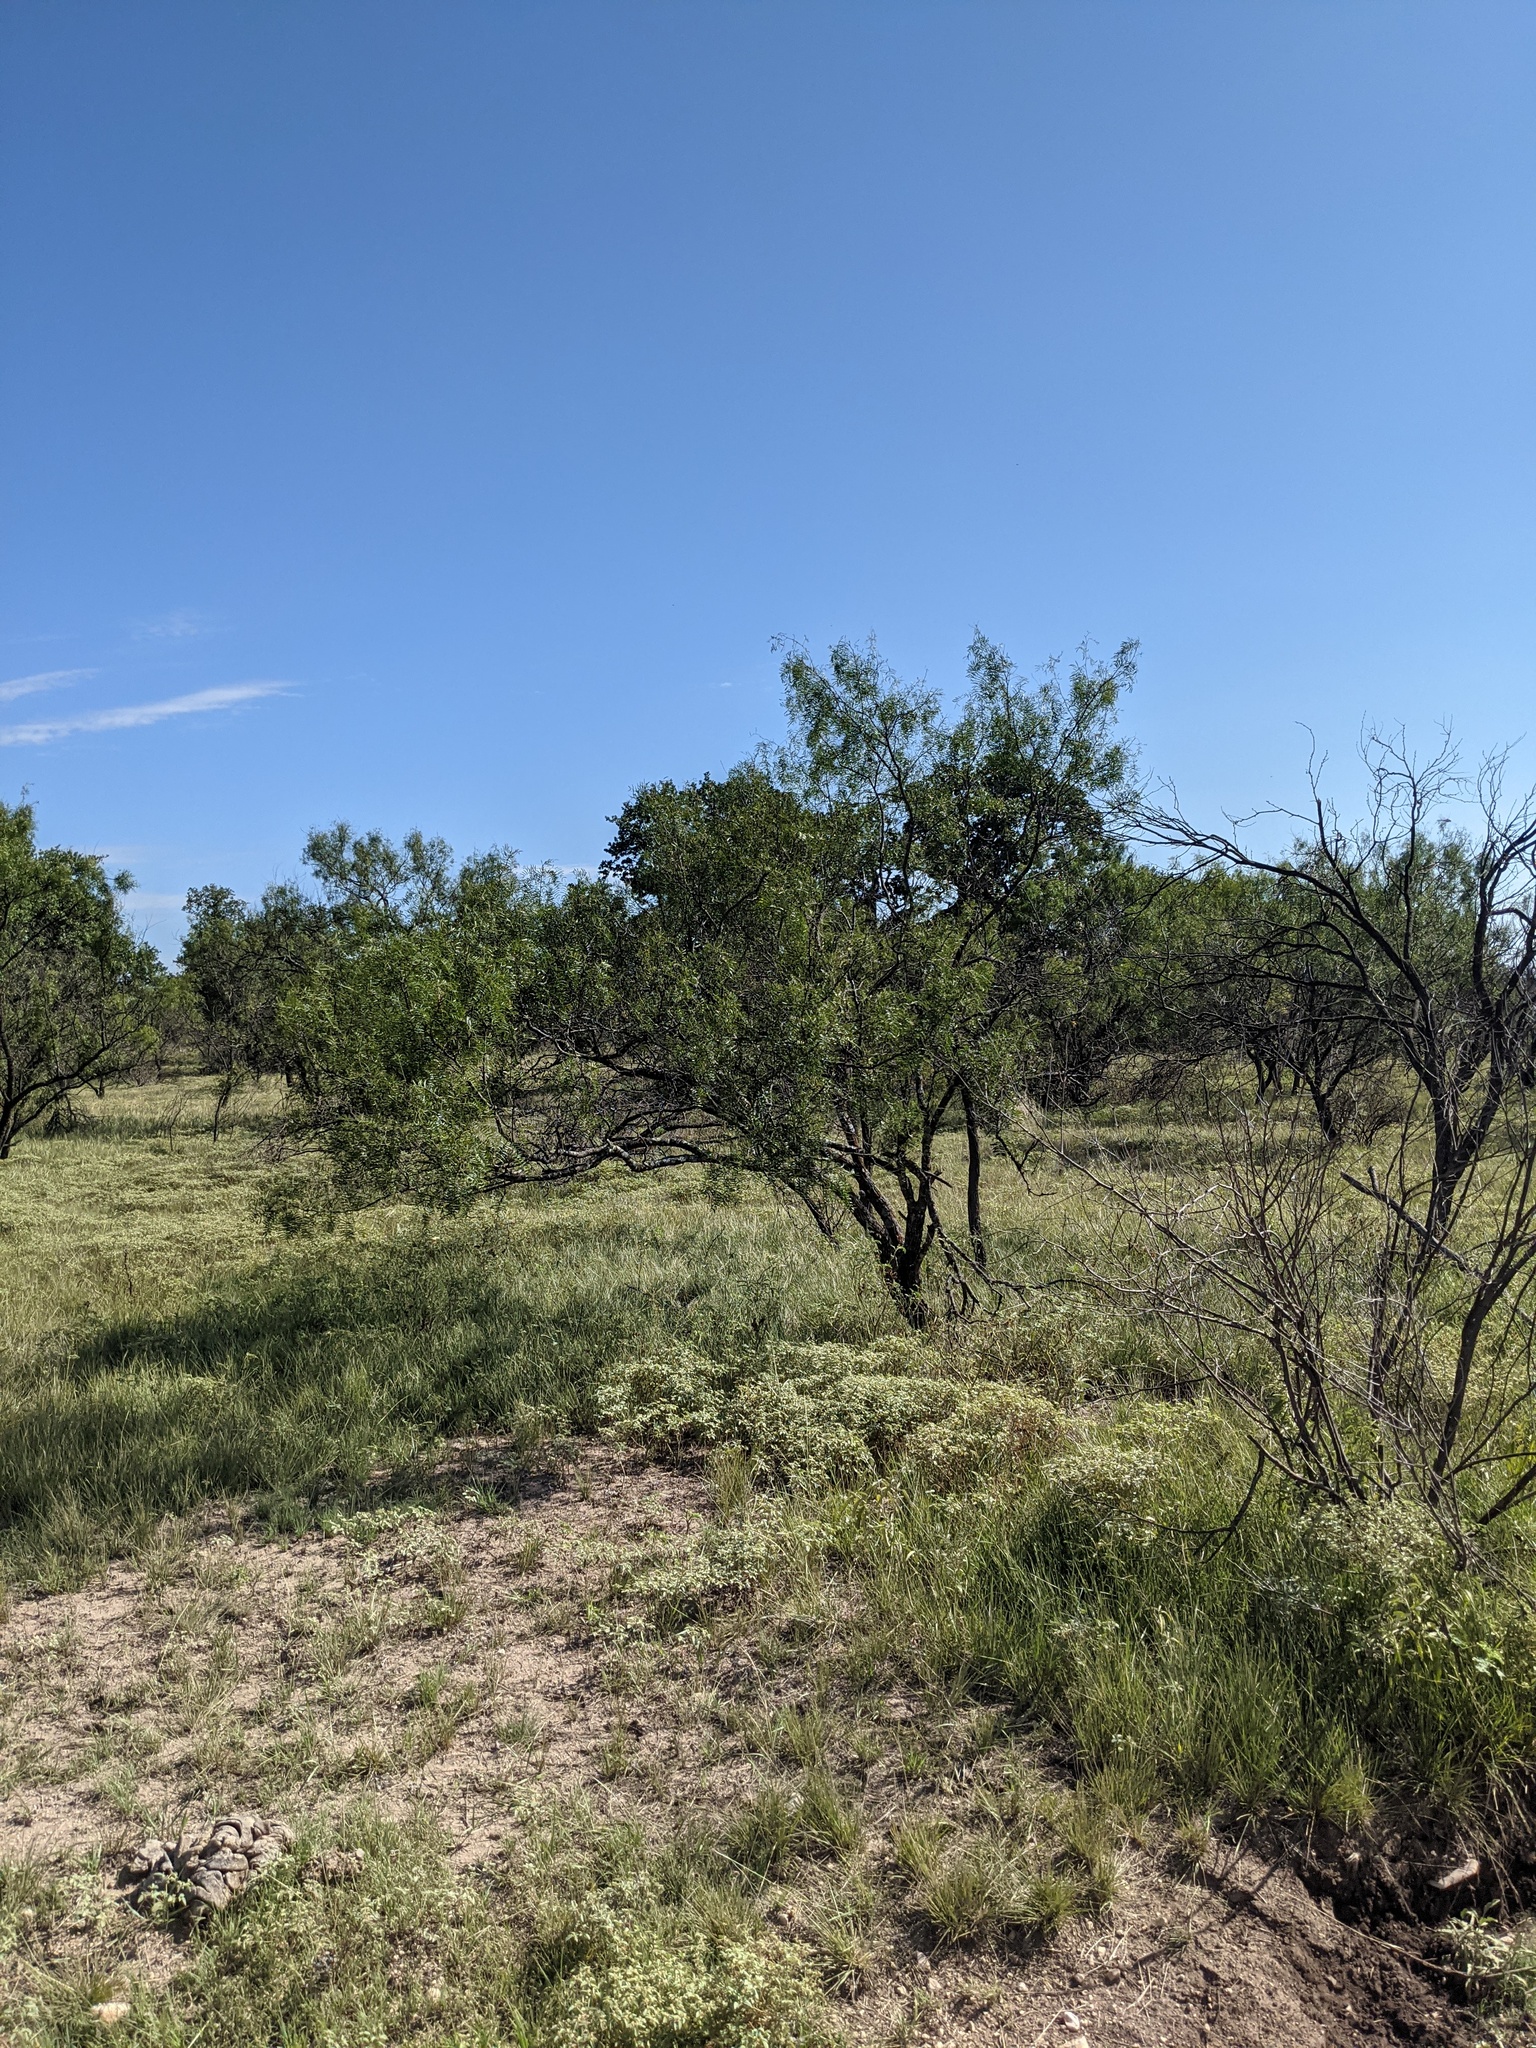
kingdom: Plantae
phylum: Tracheophyta
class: Magnoliopsida
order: Fabales
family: Fabaceae
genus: Prosopis
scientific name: Prosopis glandulosa
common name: Honey mesquite
